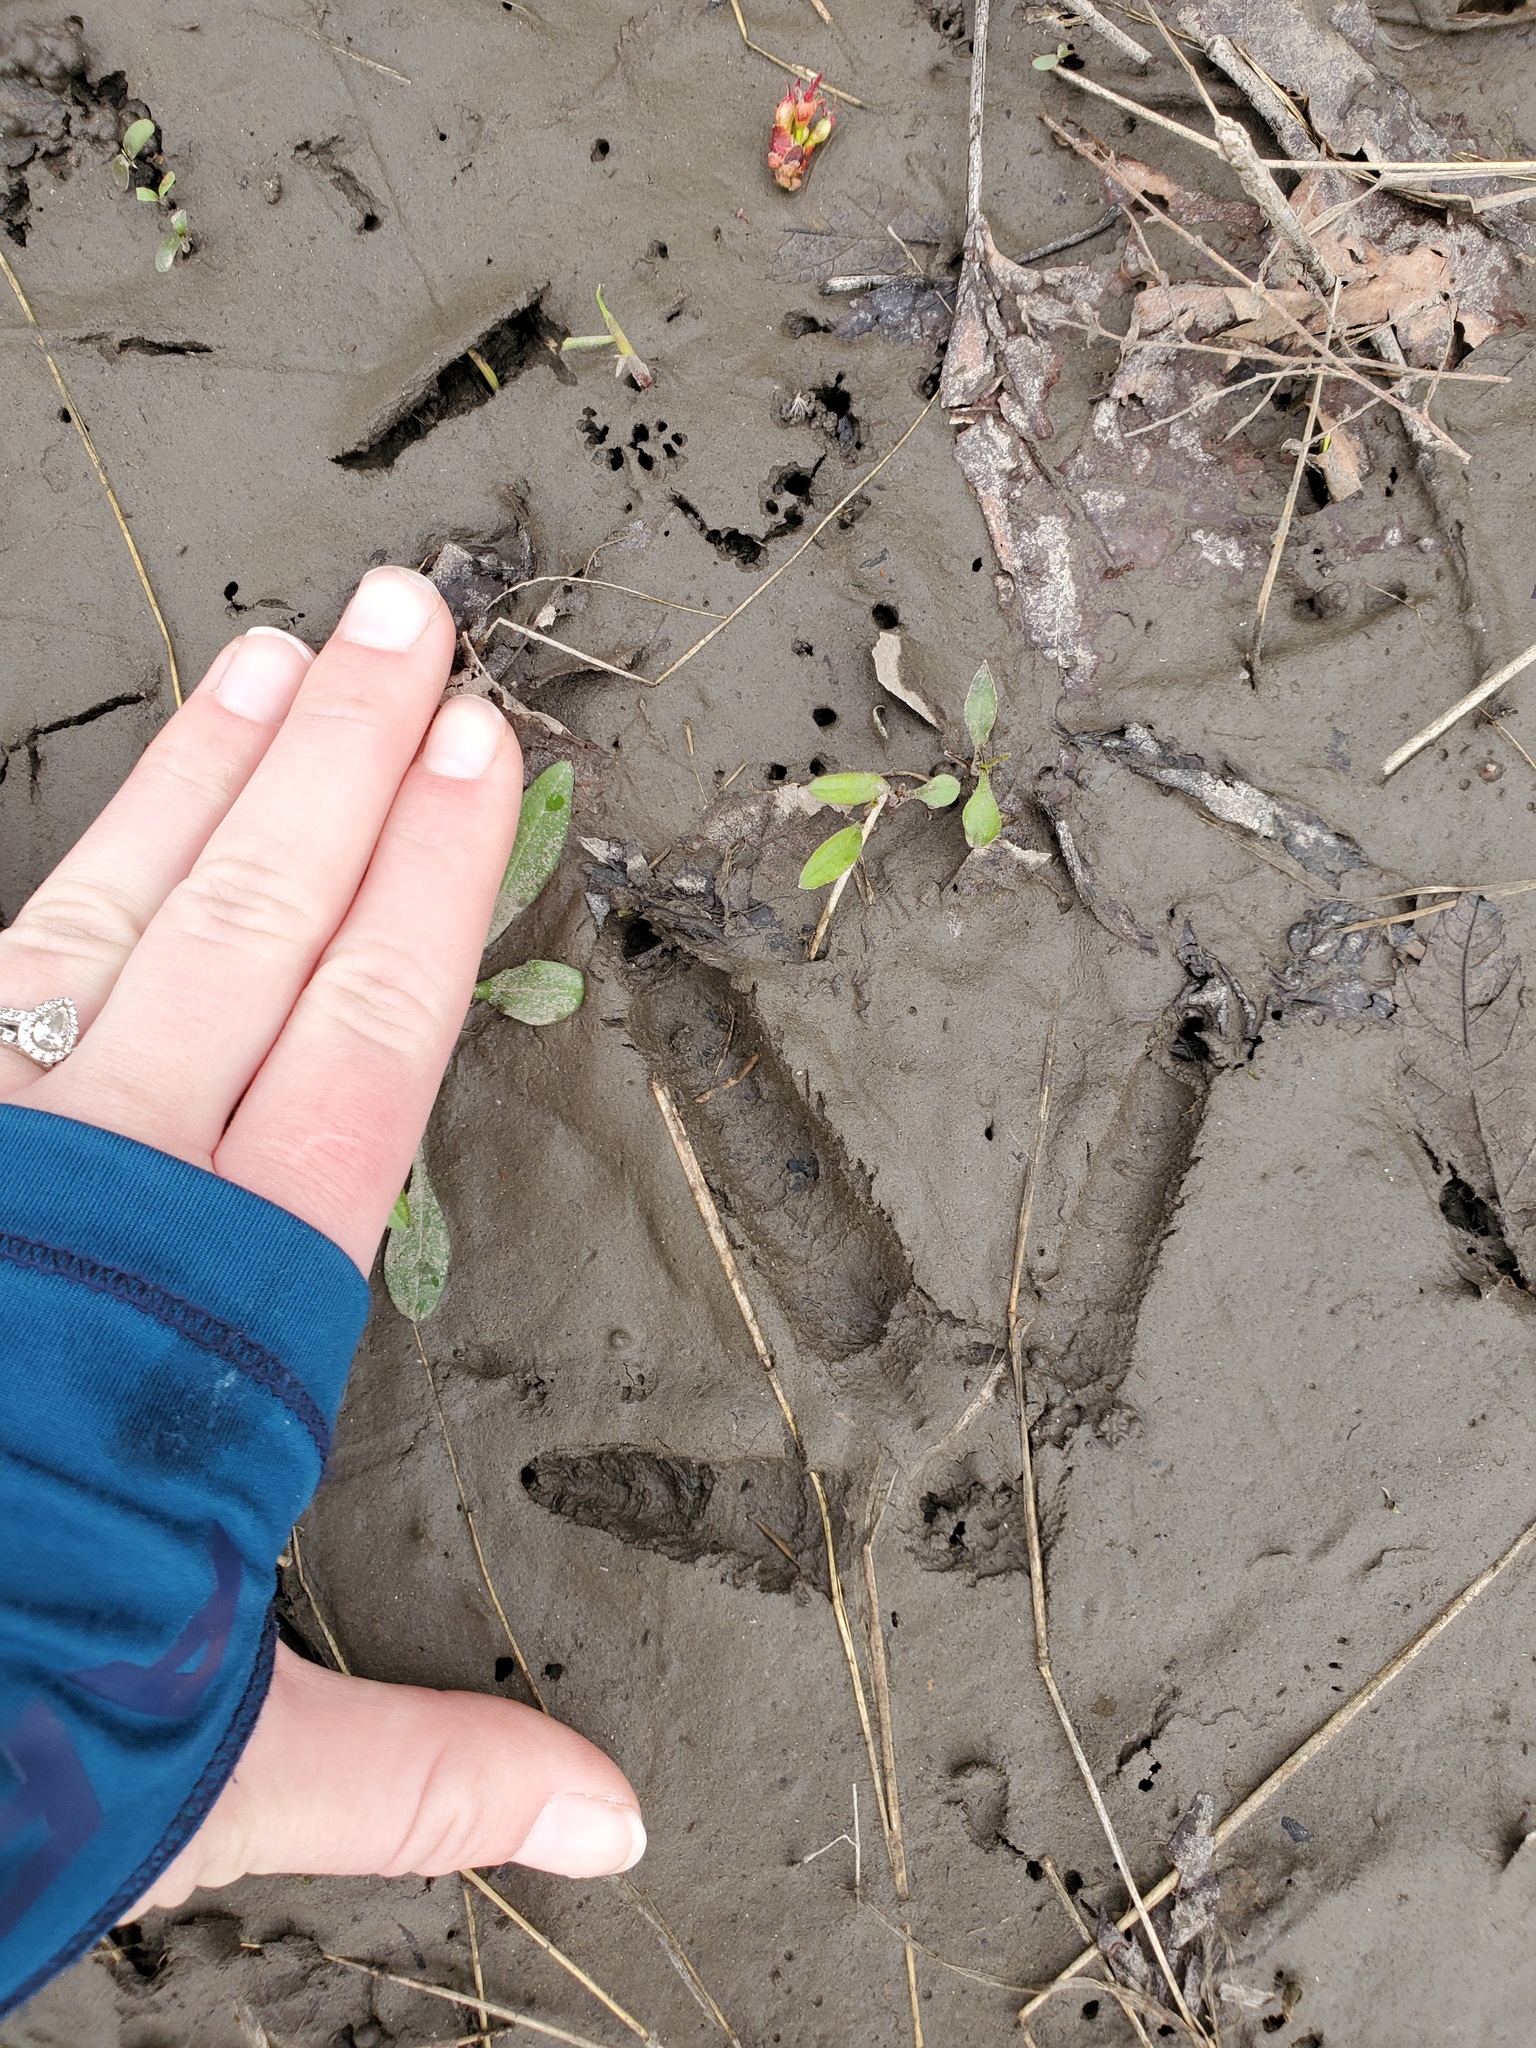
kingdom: Animalia
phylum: Chordata
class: Aves
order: Galliformes
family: Phasianidae
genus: Meleagris
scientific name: Meleagris gallopavo
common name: Wild turkey
